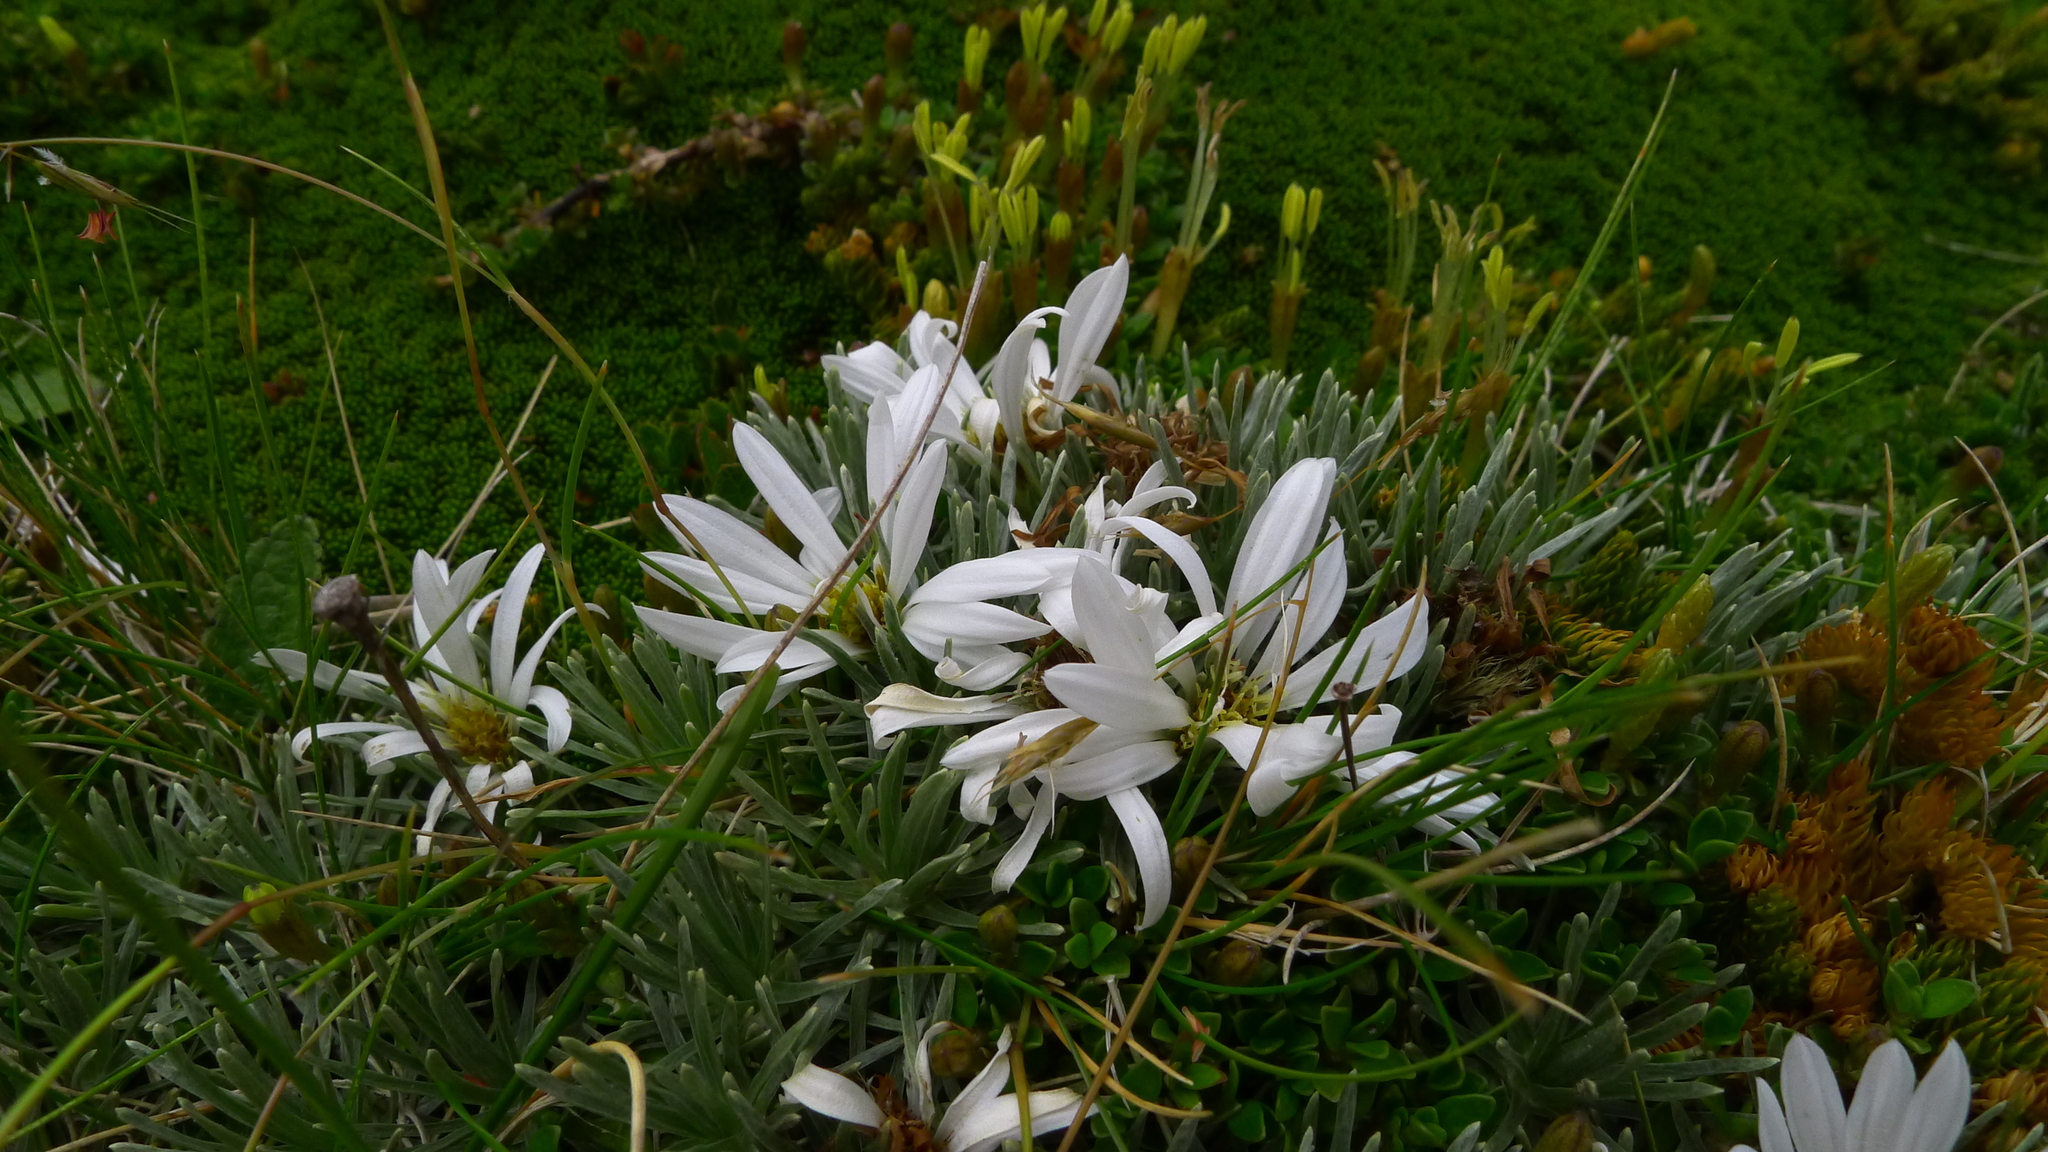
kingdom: Plantae
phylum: Tracheophyta
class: Magnoliopsida
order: Asterales
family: Asteraceae
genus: Celmisia
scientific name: Celmisia sessiliflora
